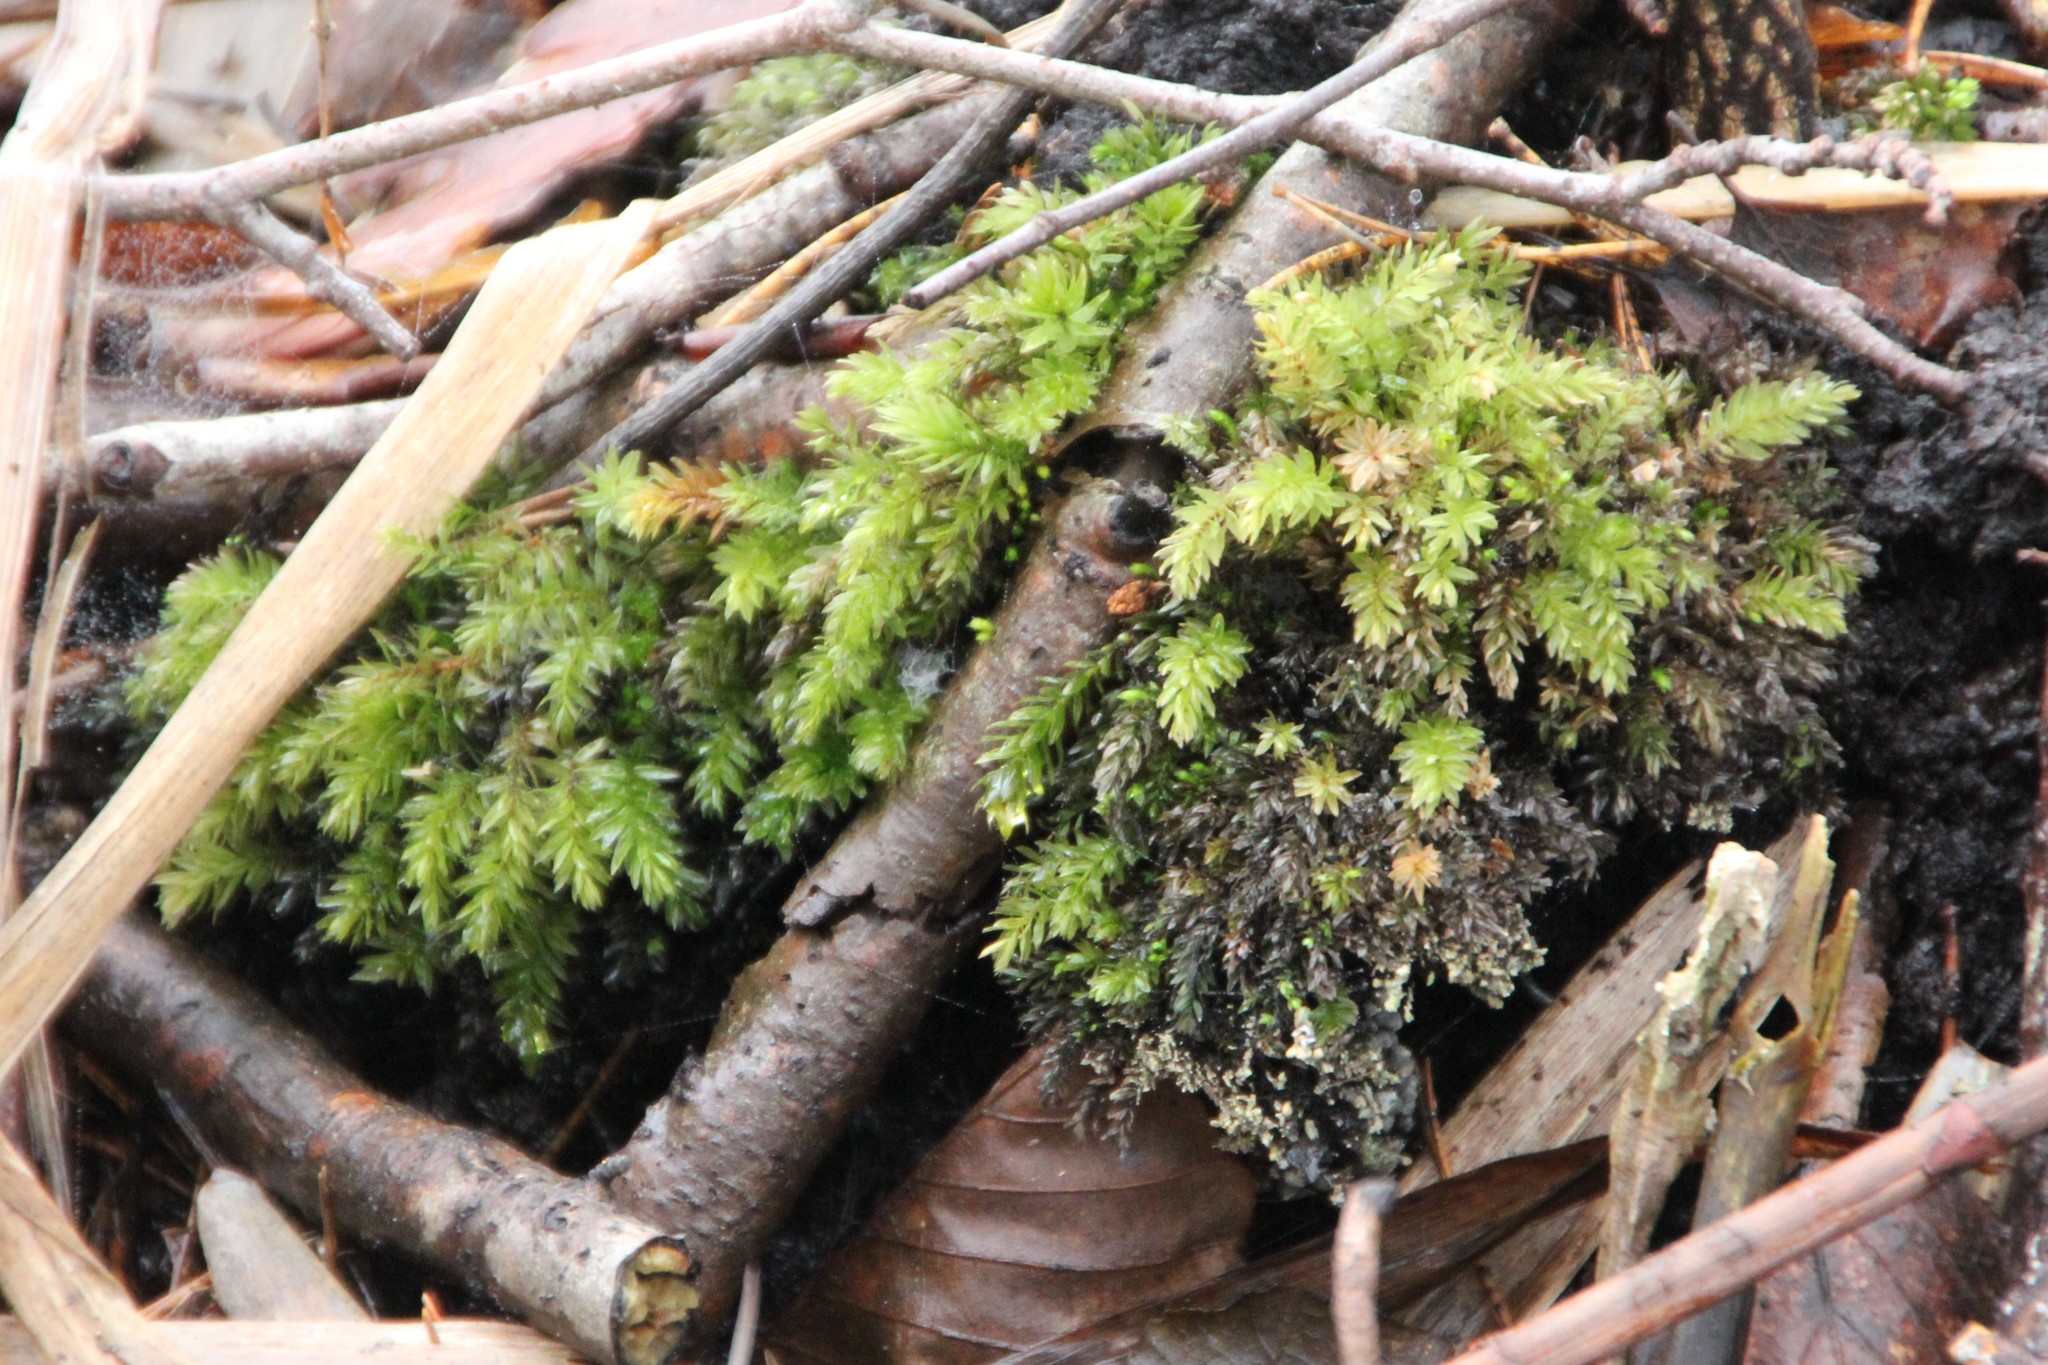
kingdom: Plantae
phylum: Bryophyta
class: Bryopsida
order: Bryales
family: Mniaceae
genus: Mnium
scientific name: Mnium hornum
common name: Swan's-neck leafy moss
